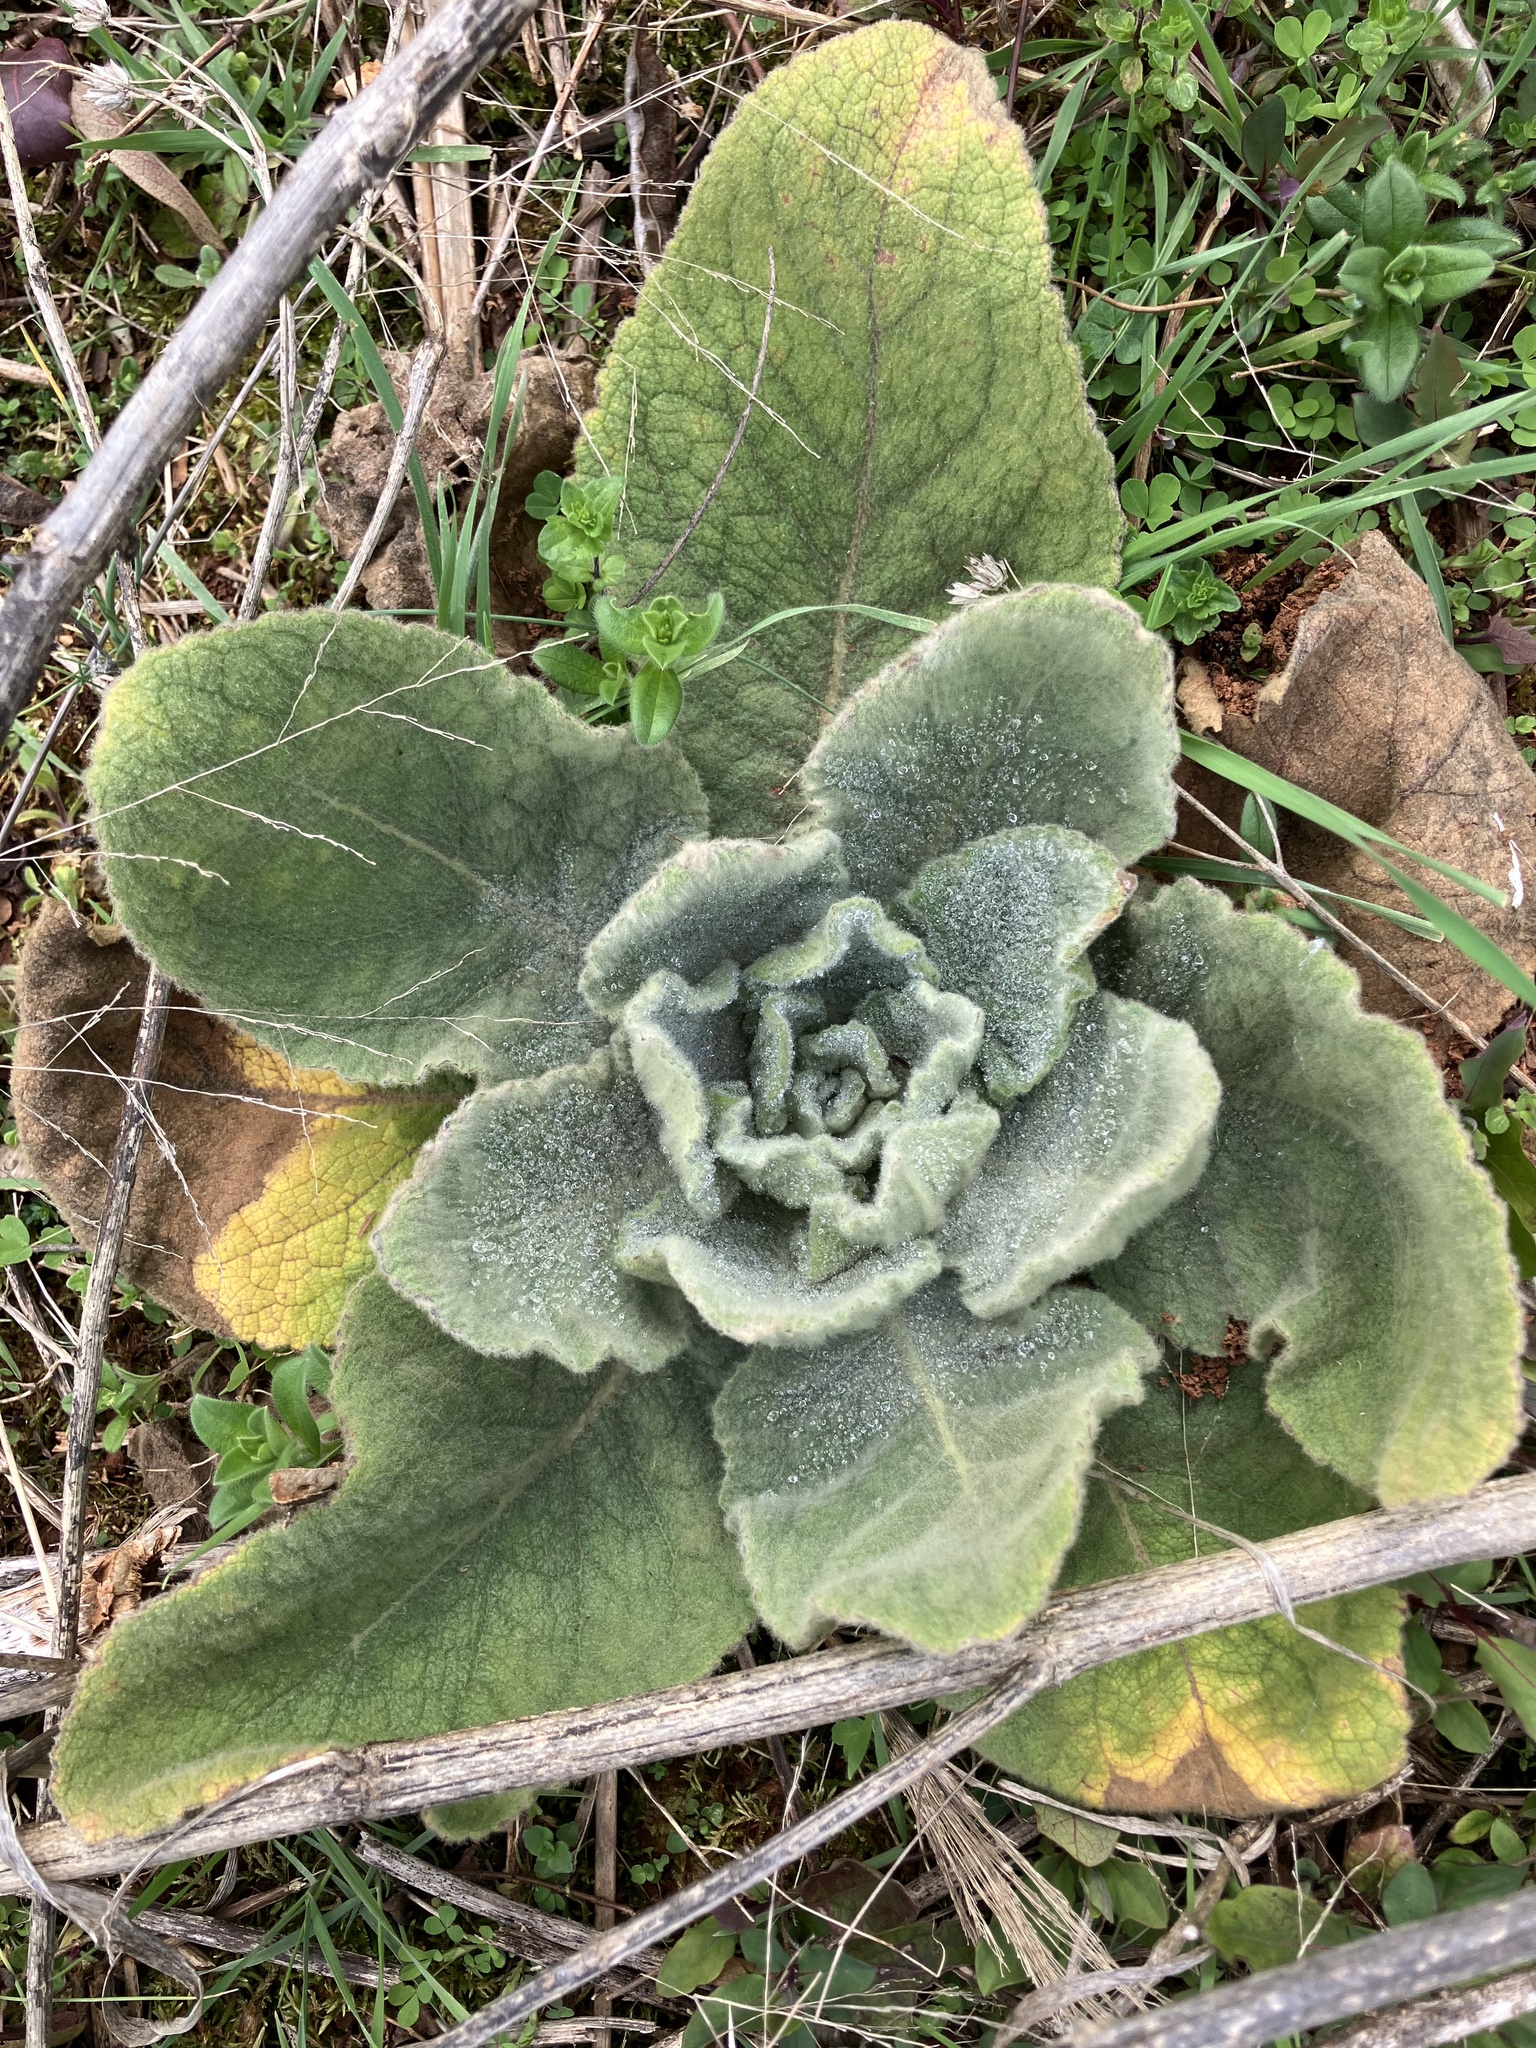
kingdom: Plantae
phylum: Tracheophyta
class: Magnoliopsida
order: Lamiales
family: Scrophulariaceae
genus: Verbascum
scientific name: Verbascum thapsus
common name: Common mullein
